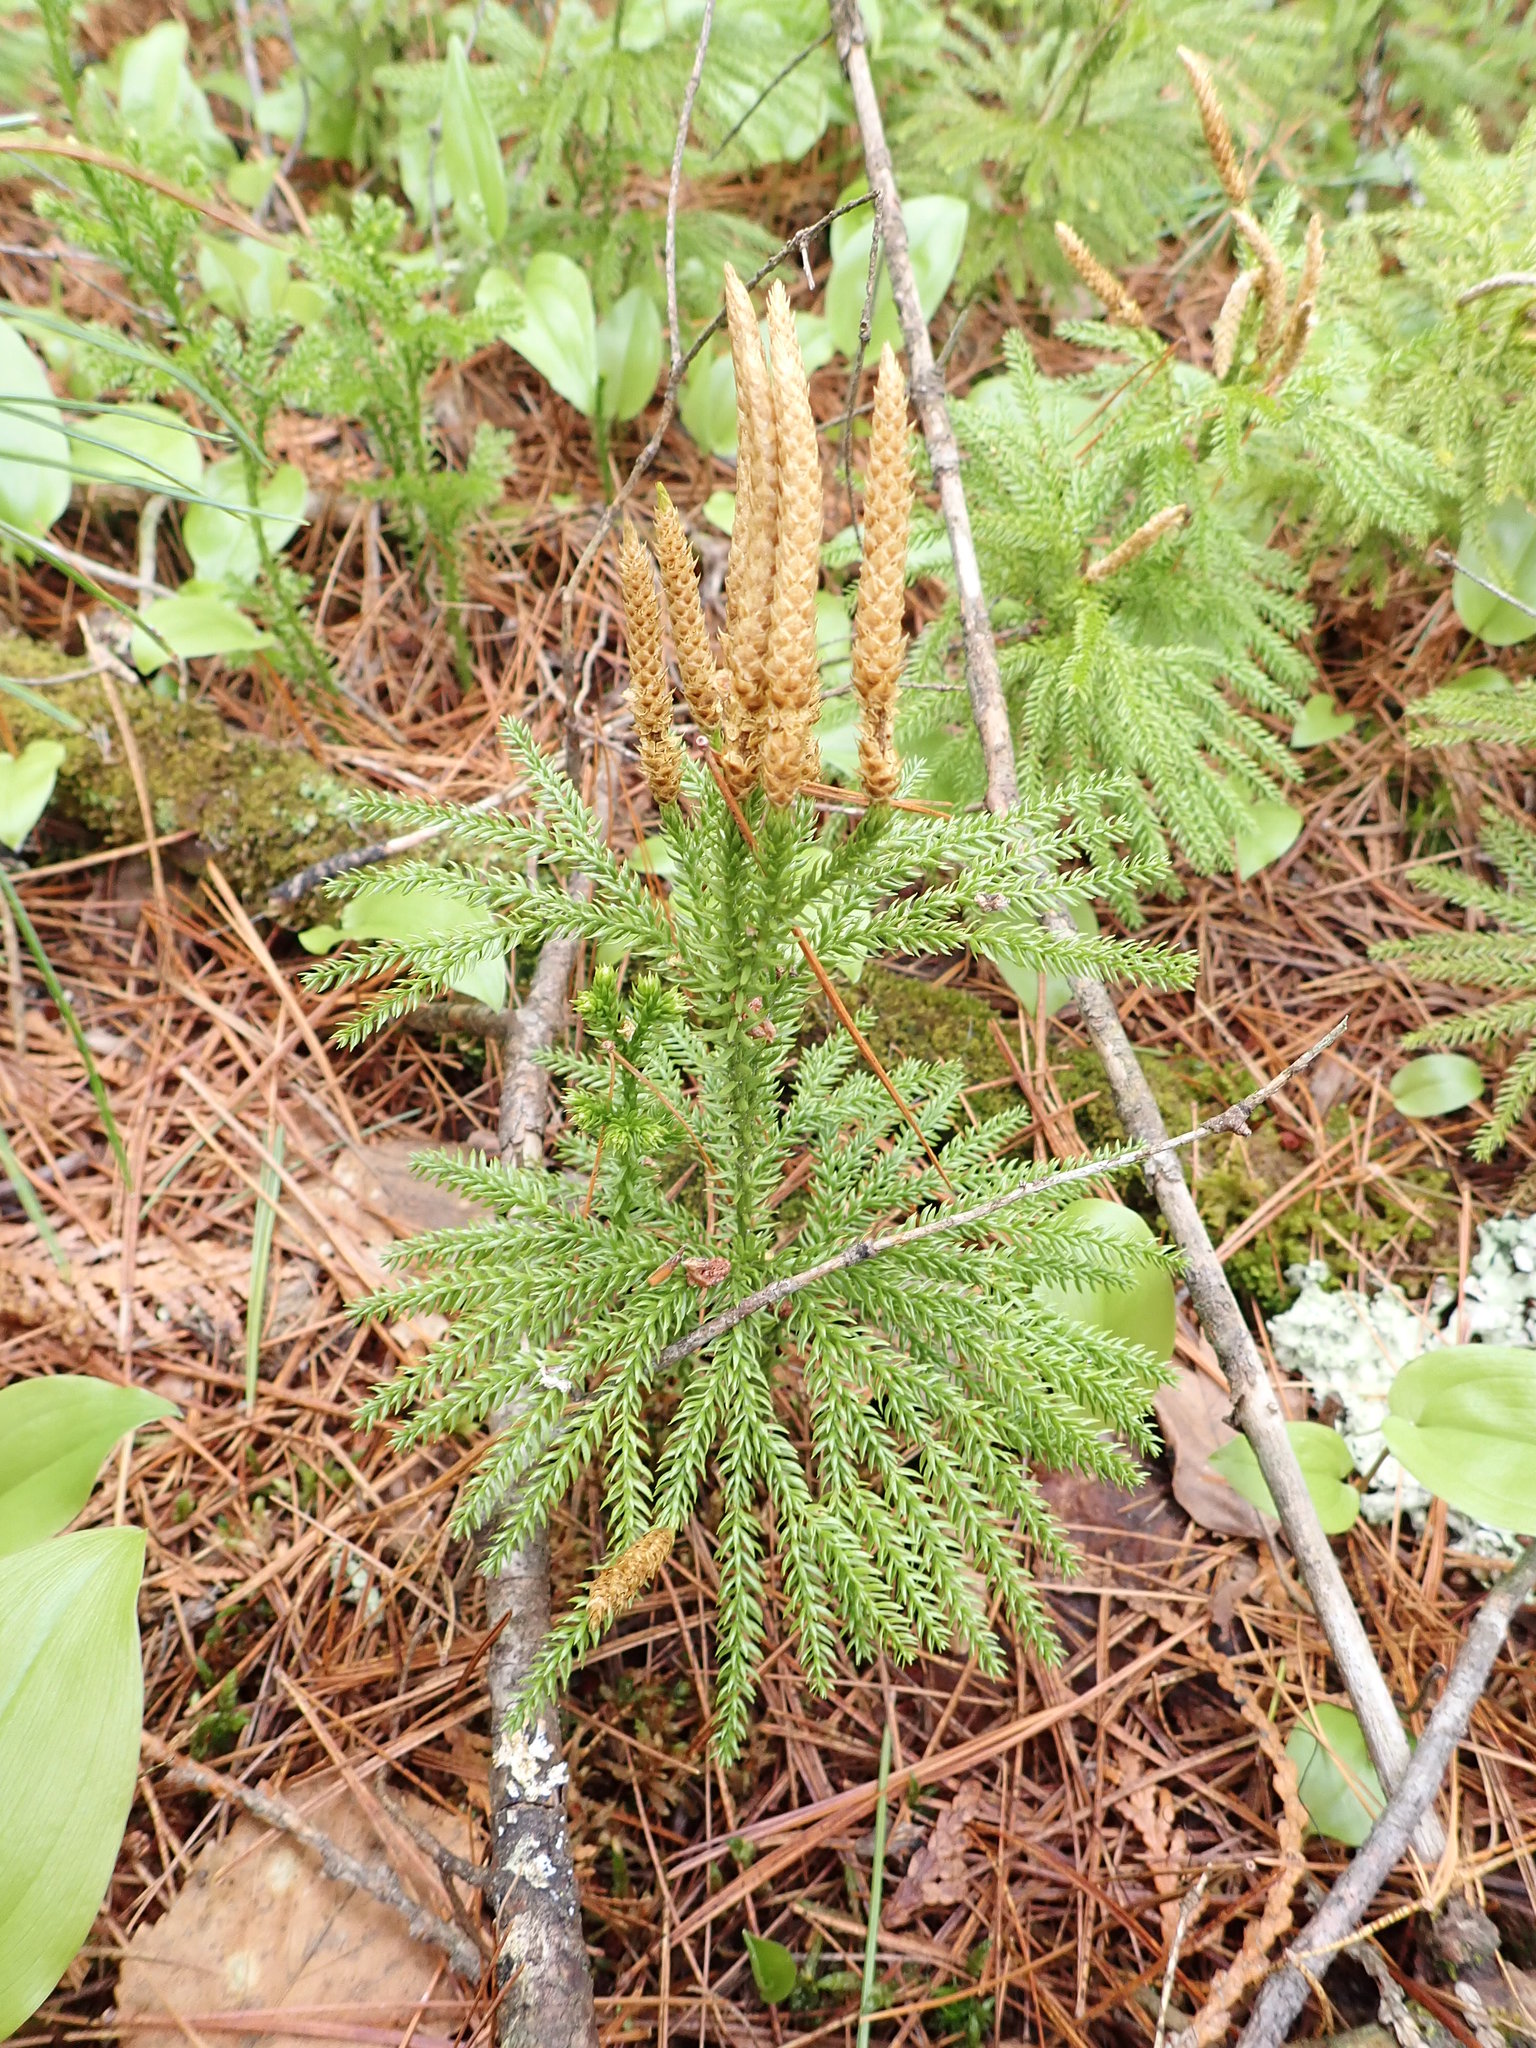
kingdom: Plantae
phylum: Tracheophyta
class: Lycopodiopsida
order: Lycopodiales
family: Lycopodiaceae
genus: Dendrolycopodium
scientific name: Dendrolycopodium dendroideum
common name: Northern tree-clubmoss
